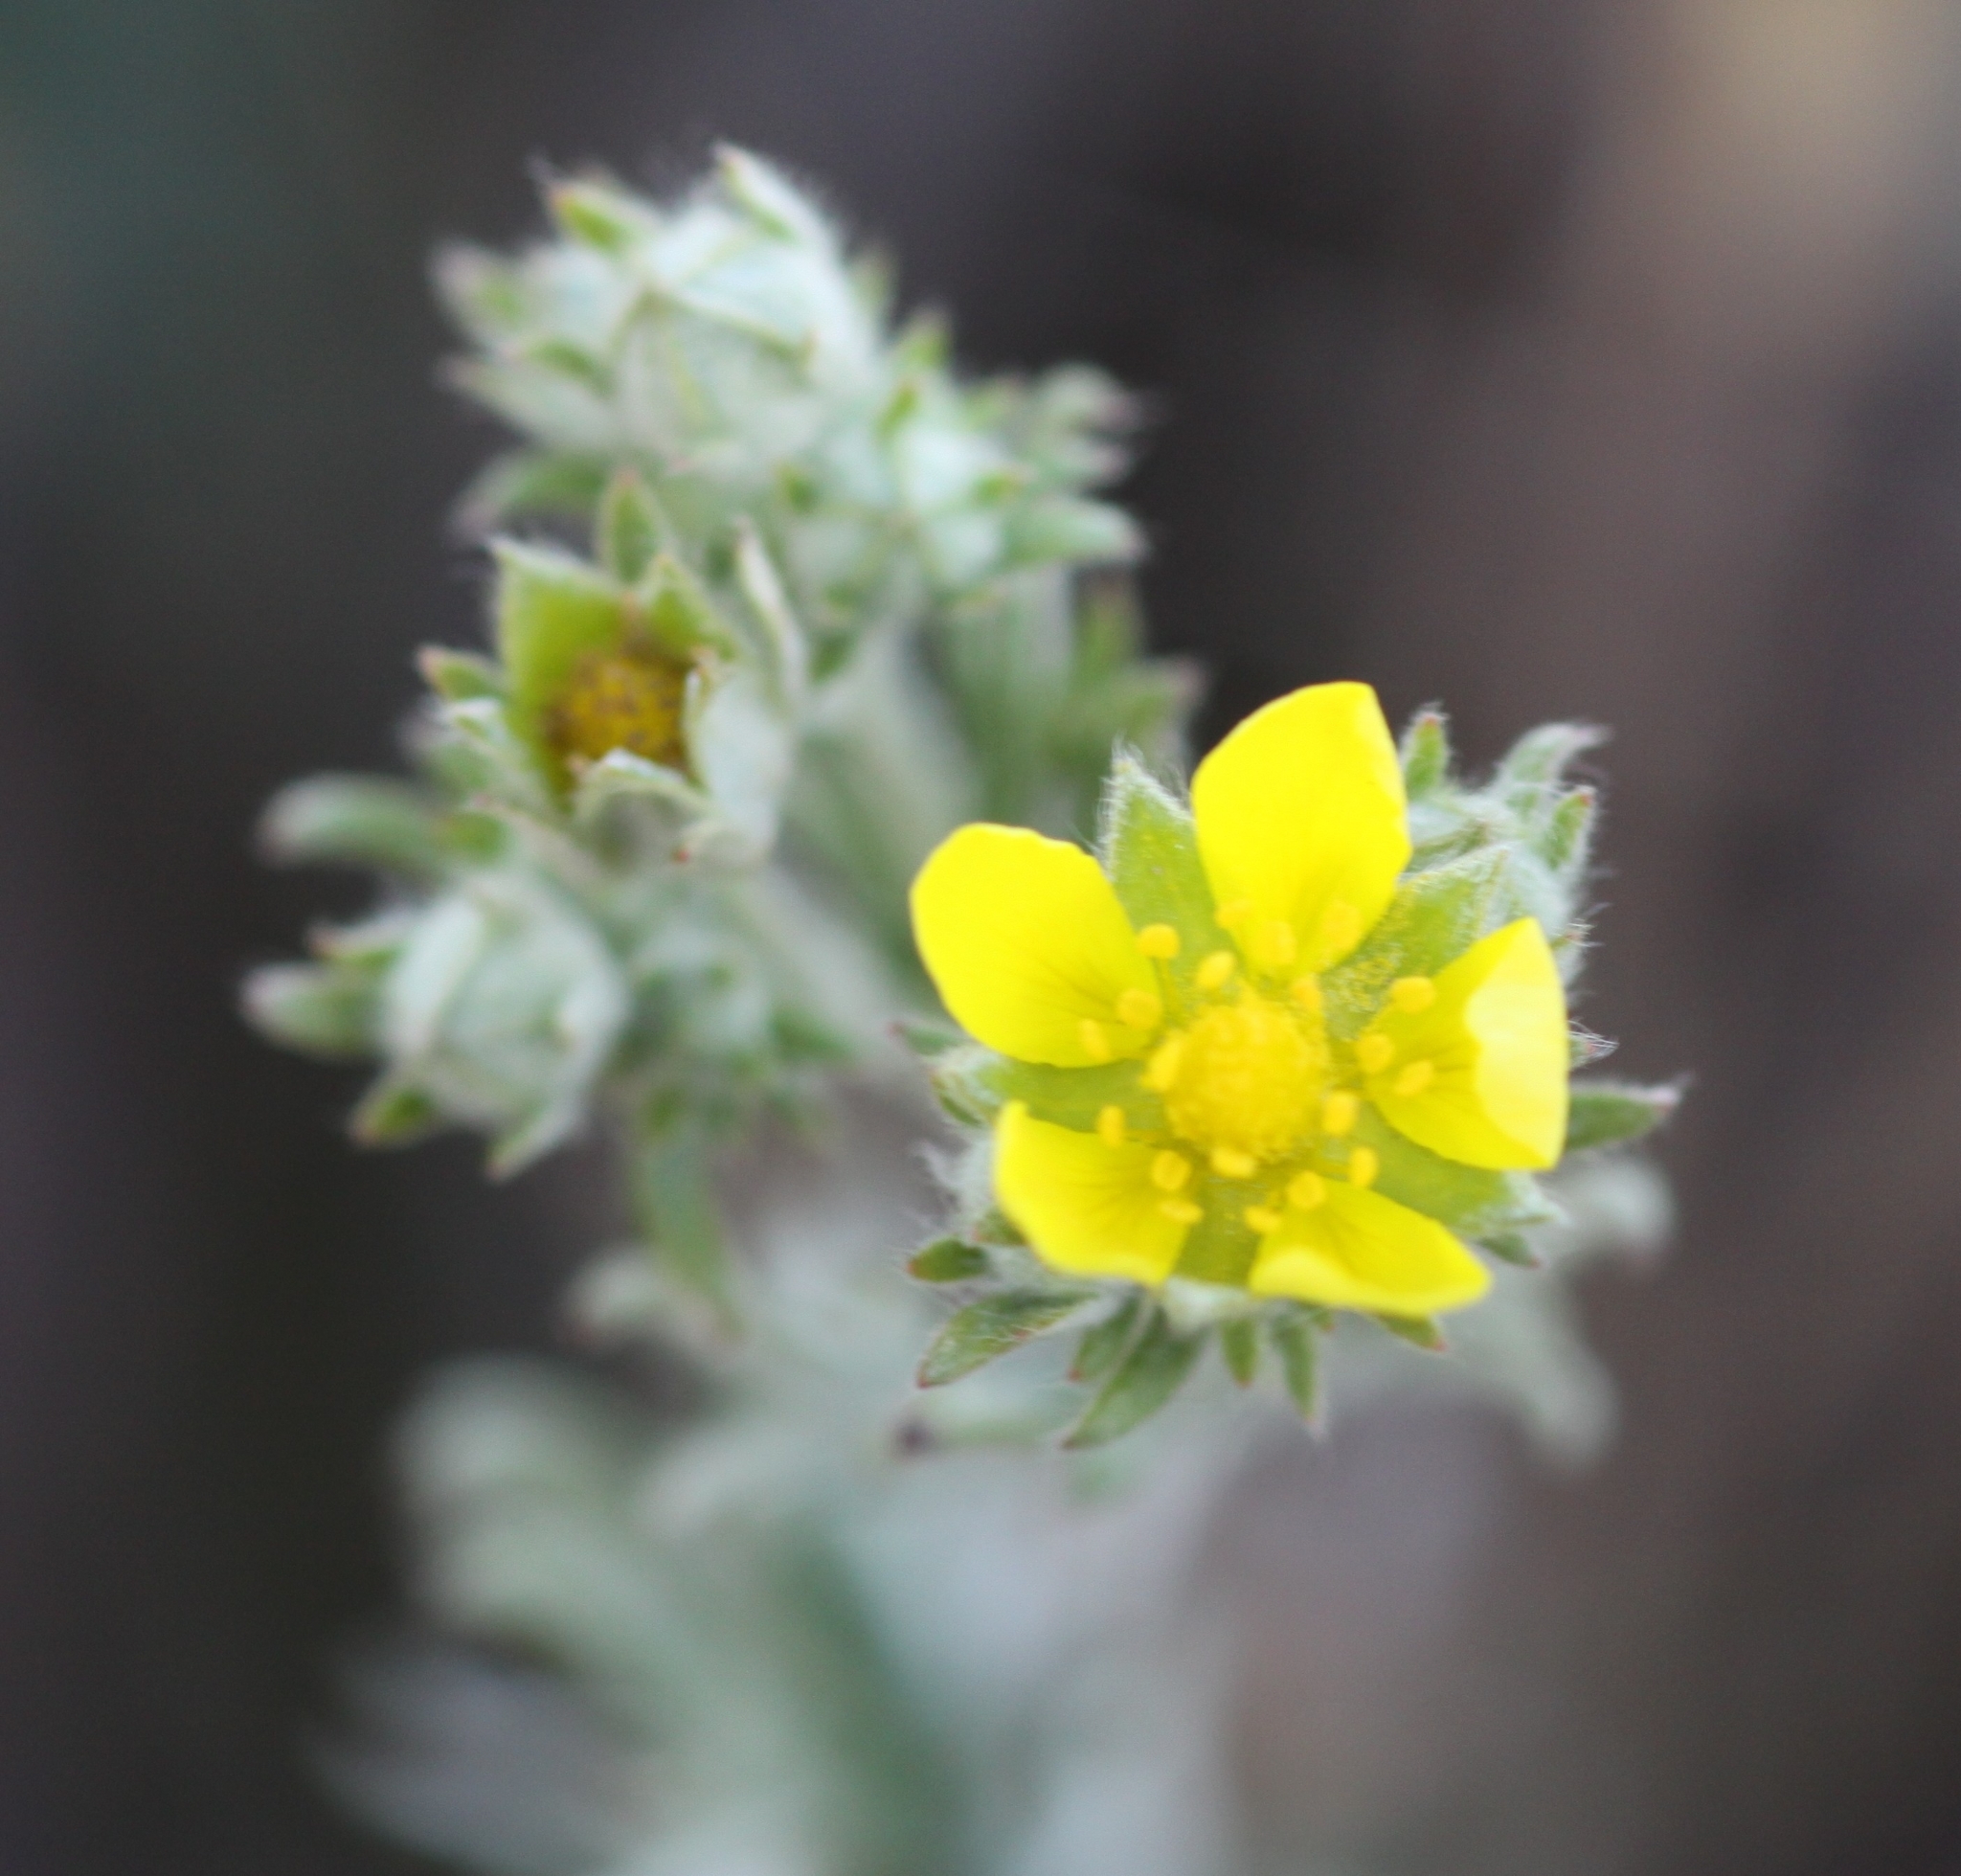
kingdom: Plantae
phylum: Tracheophyta
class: Magnoliopsida
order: Rosales
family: Rosaceae
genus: Potentilla
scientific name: Potentilla argentea
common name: Hoary cinquefoil
